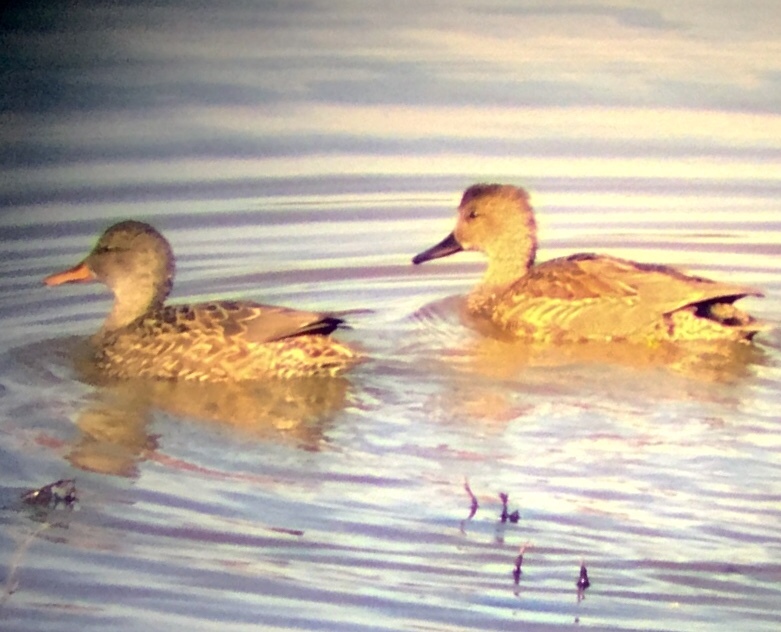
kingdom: Animalia
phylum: Chordata
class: Aves
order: Anseriformes
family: Anatidae
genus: Mareca
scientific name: Mareca strepera
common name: Gadwall
